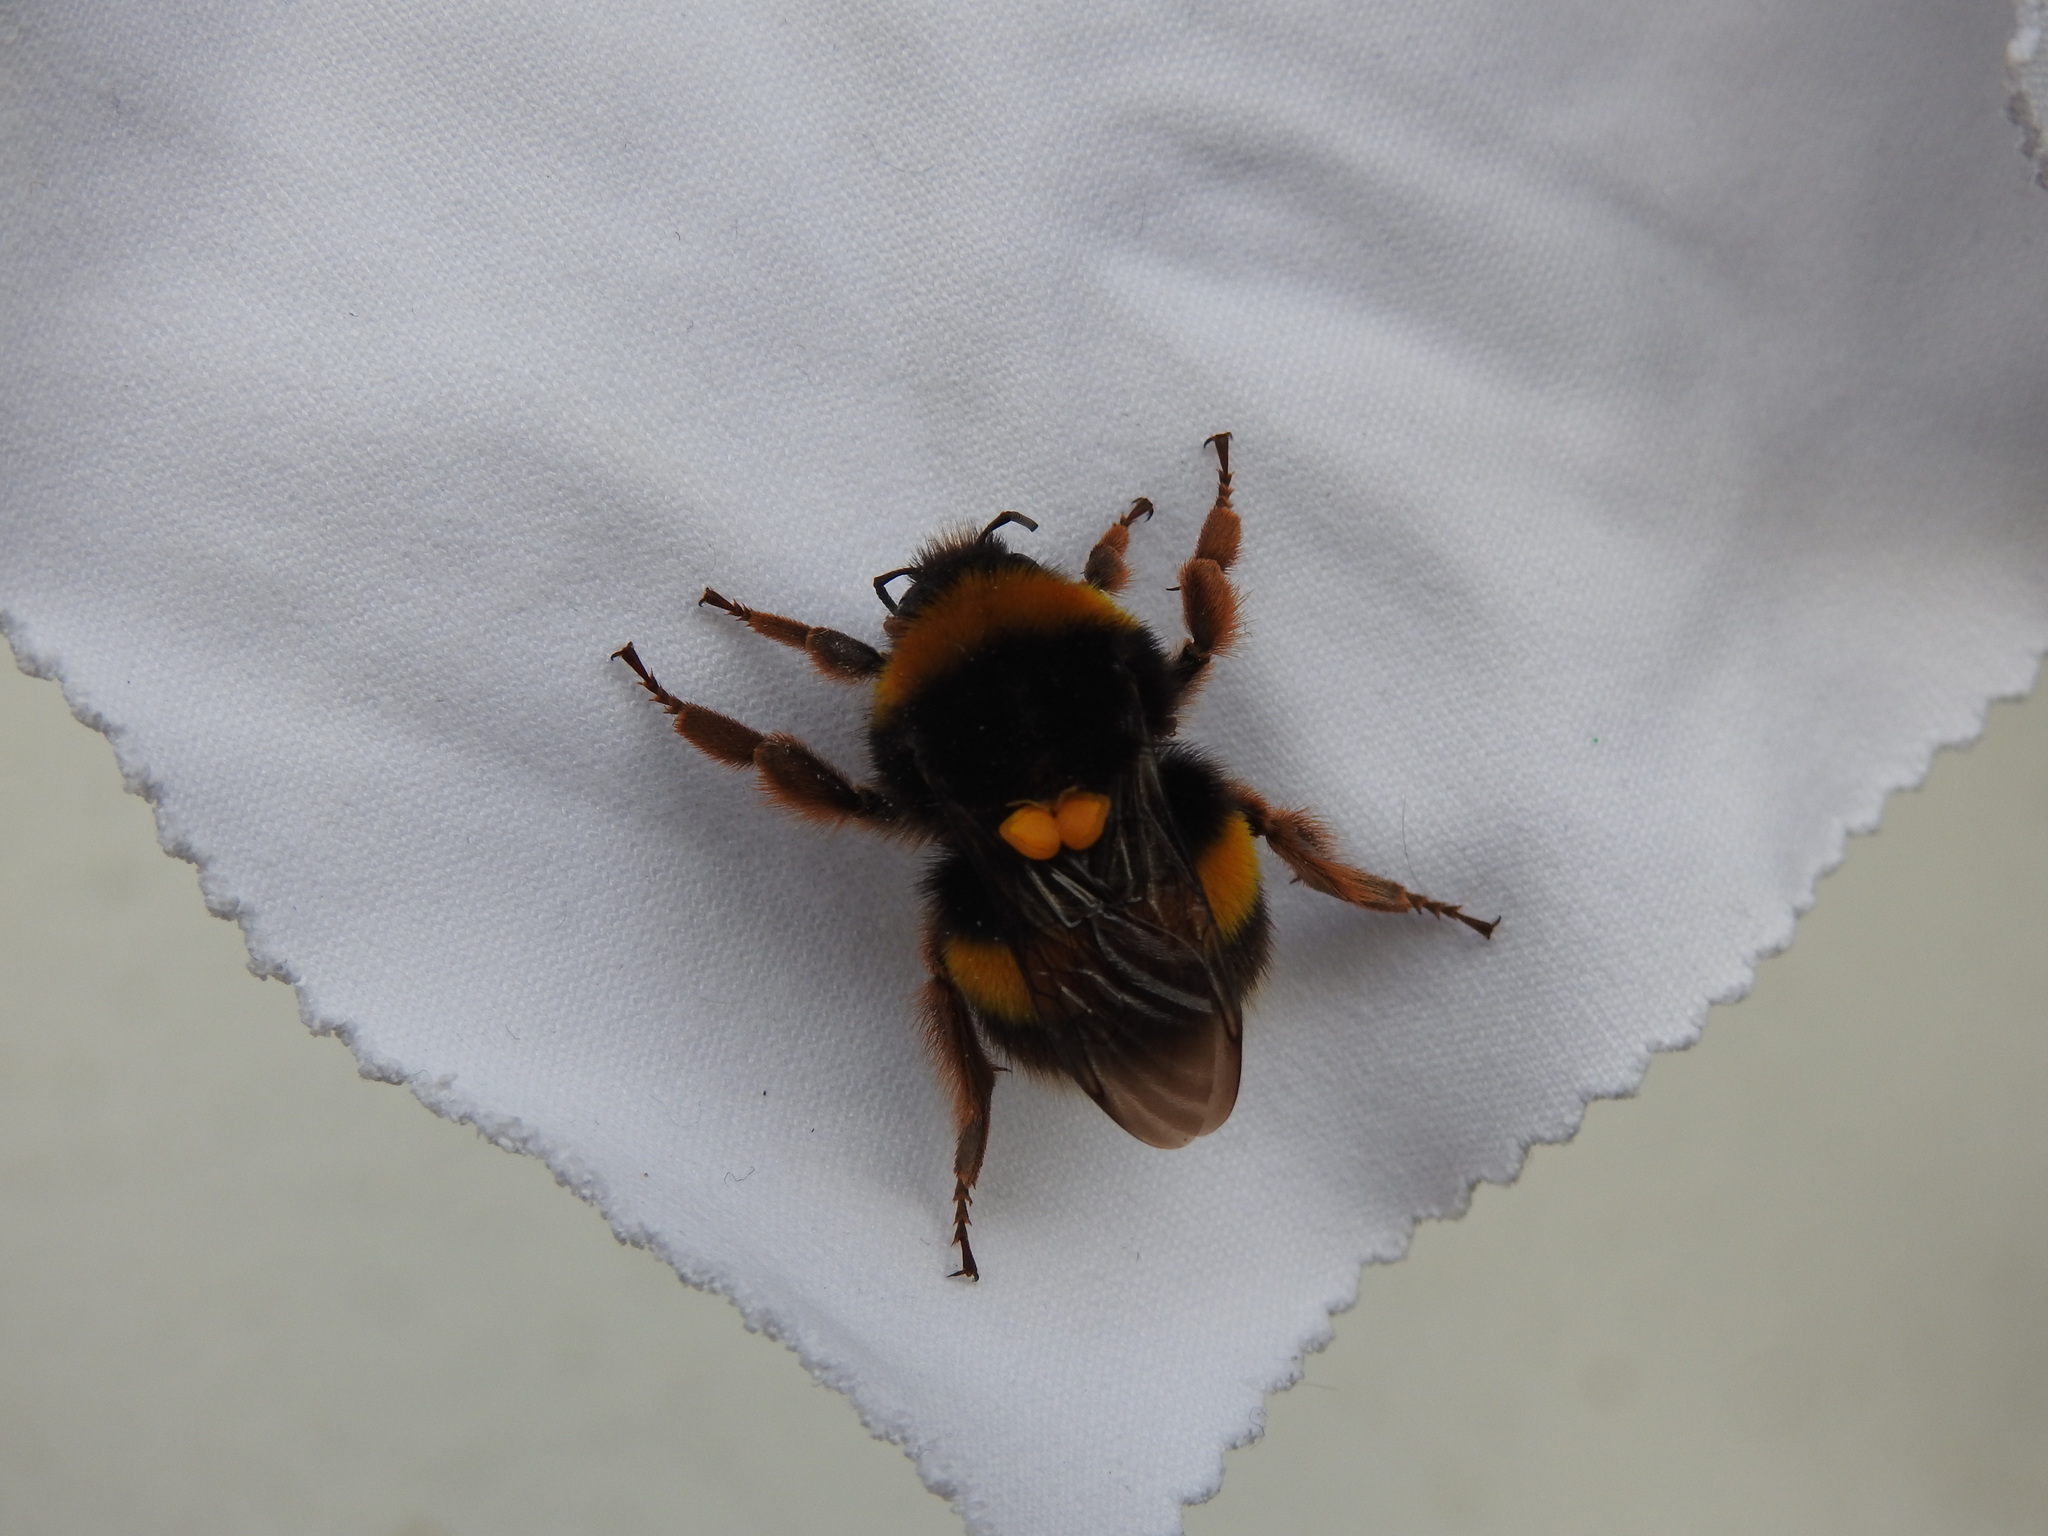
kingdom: Animalia
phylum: Arthropoda
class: Insecta
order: Hymenoptera
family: Apidae
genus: Bombus
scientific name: Bombus terrestris
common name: Buff-tailed bumblebee
